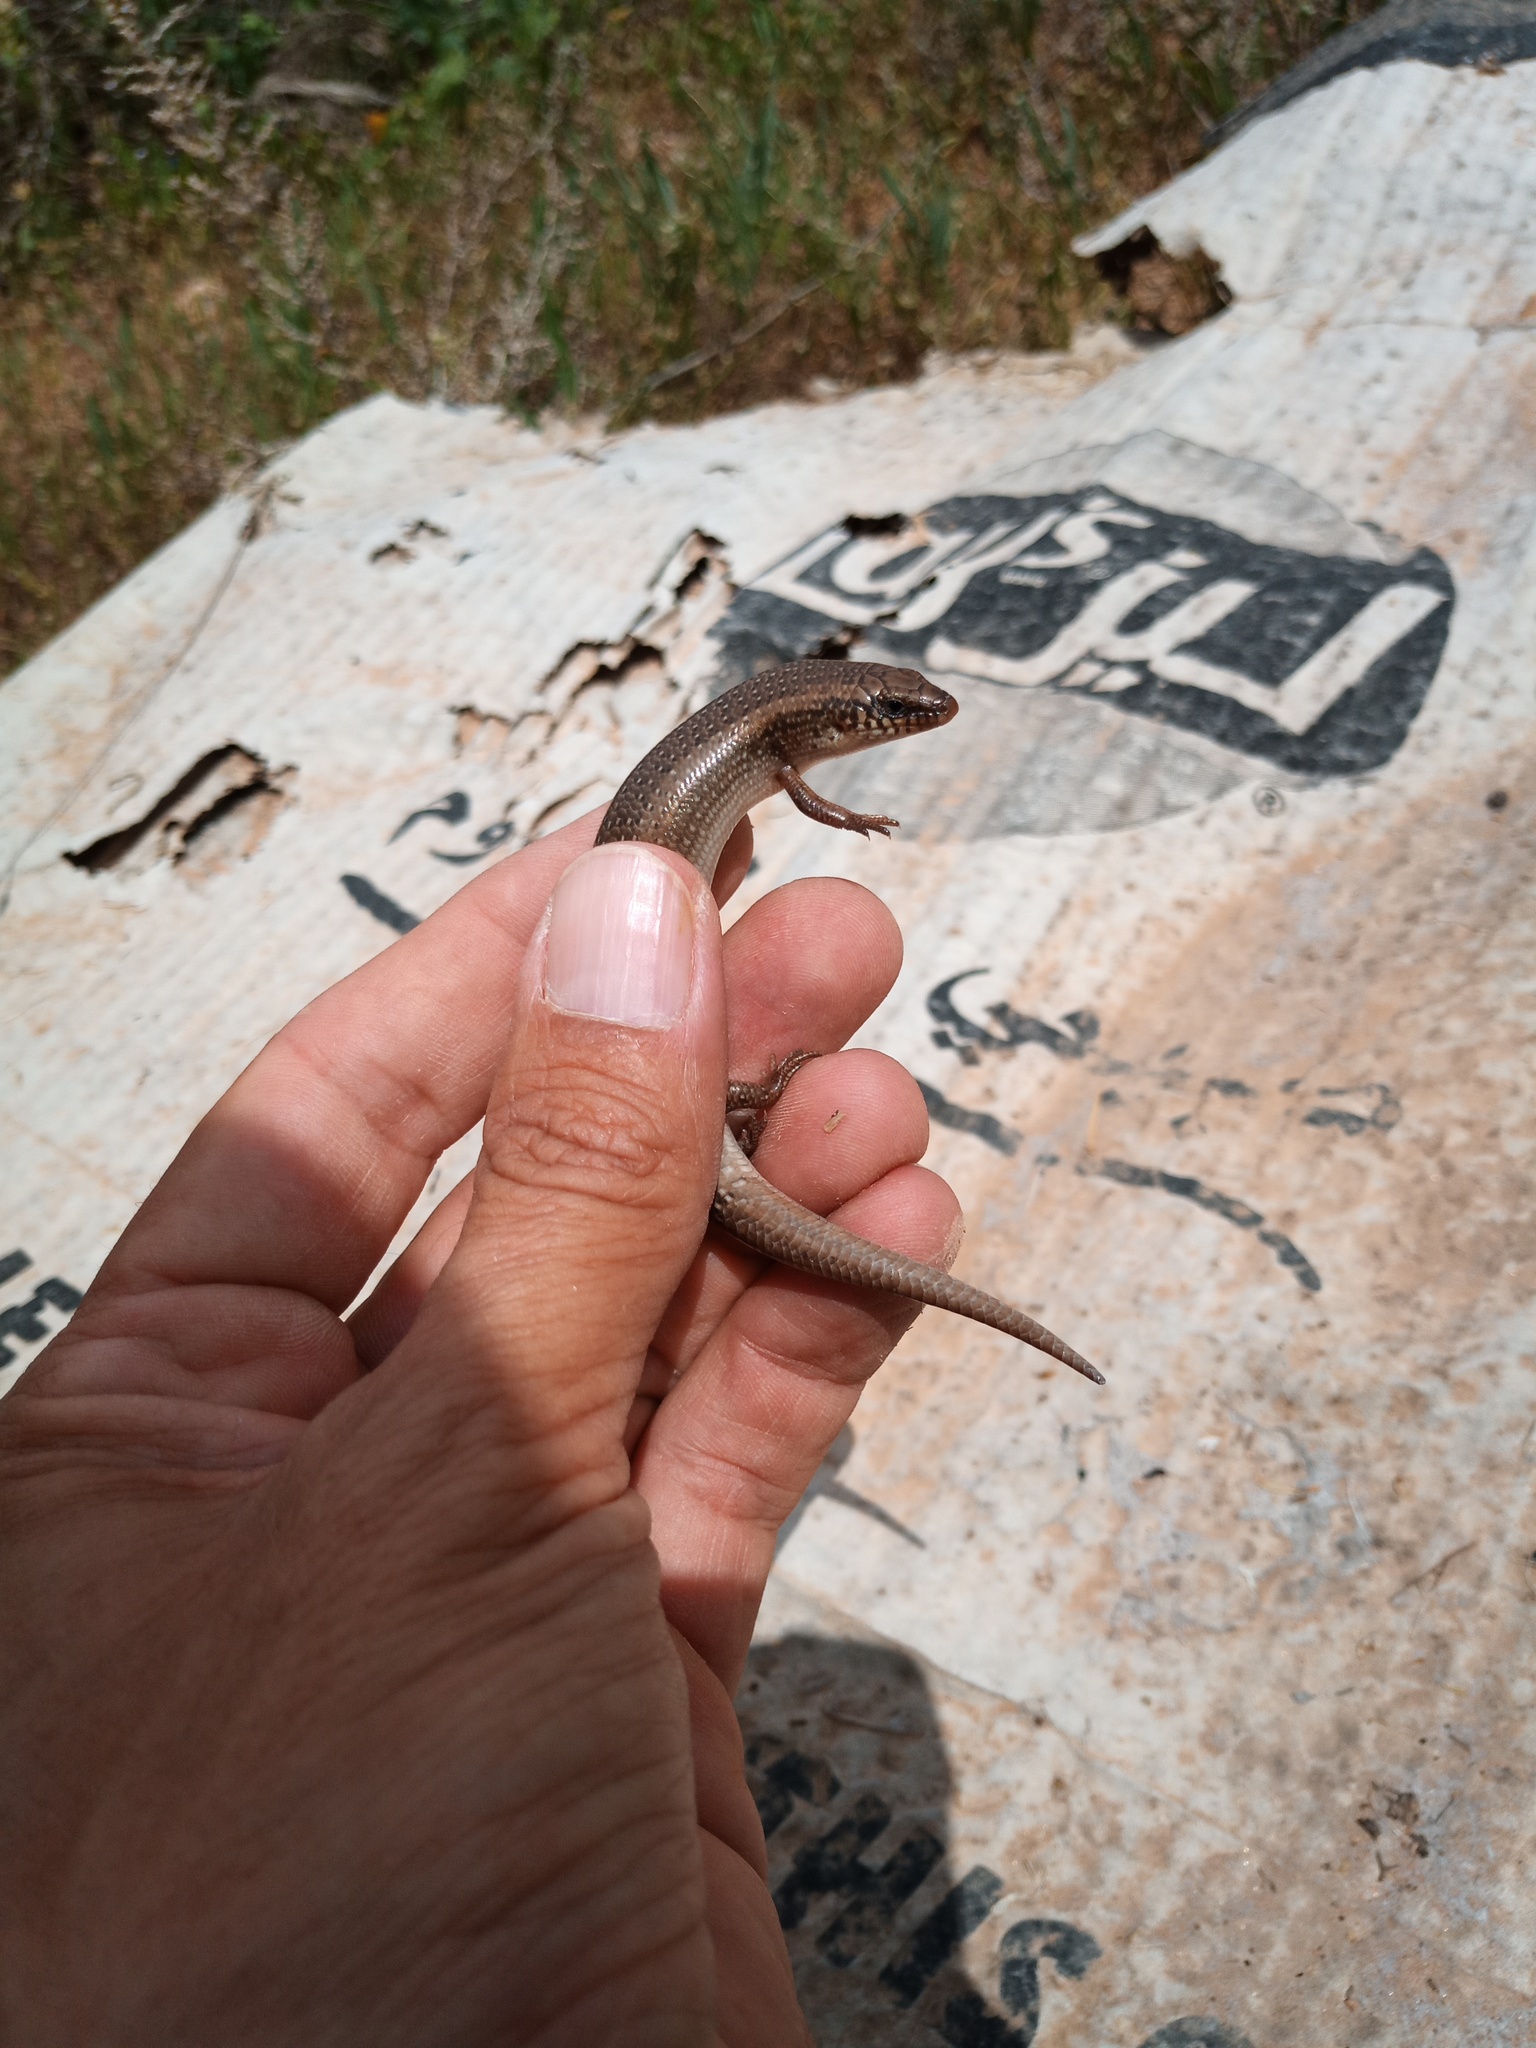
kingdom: Animalia
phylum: Chordata
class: Squamata
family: Scincidae
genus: Chalcides
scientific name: Chalcides ocellatus
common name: Ocellated skink
